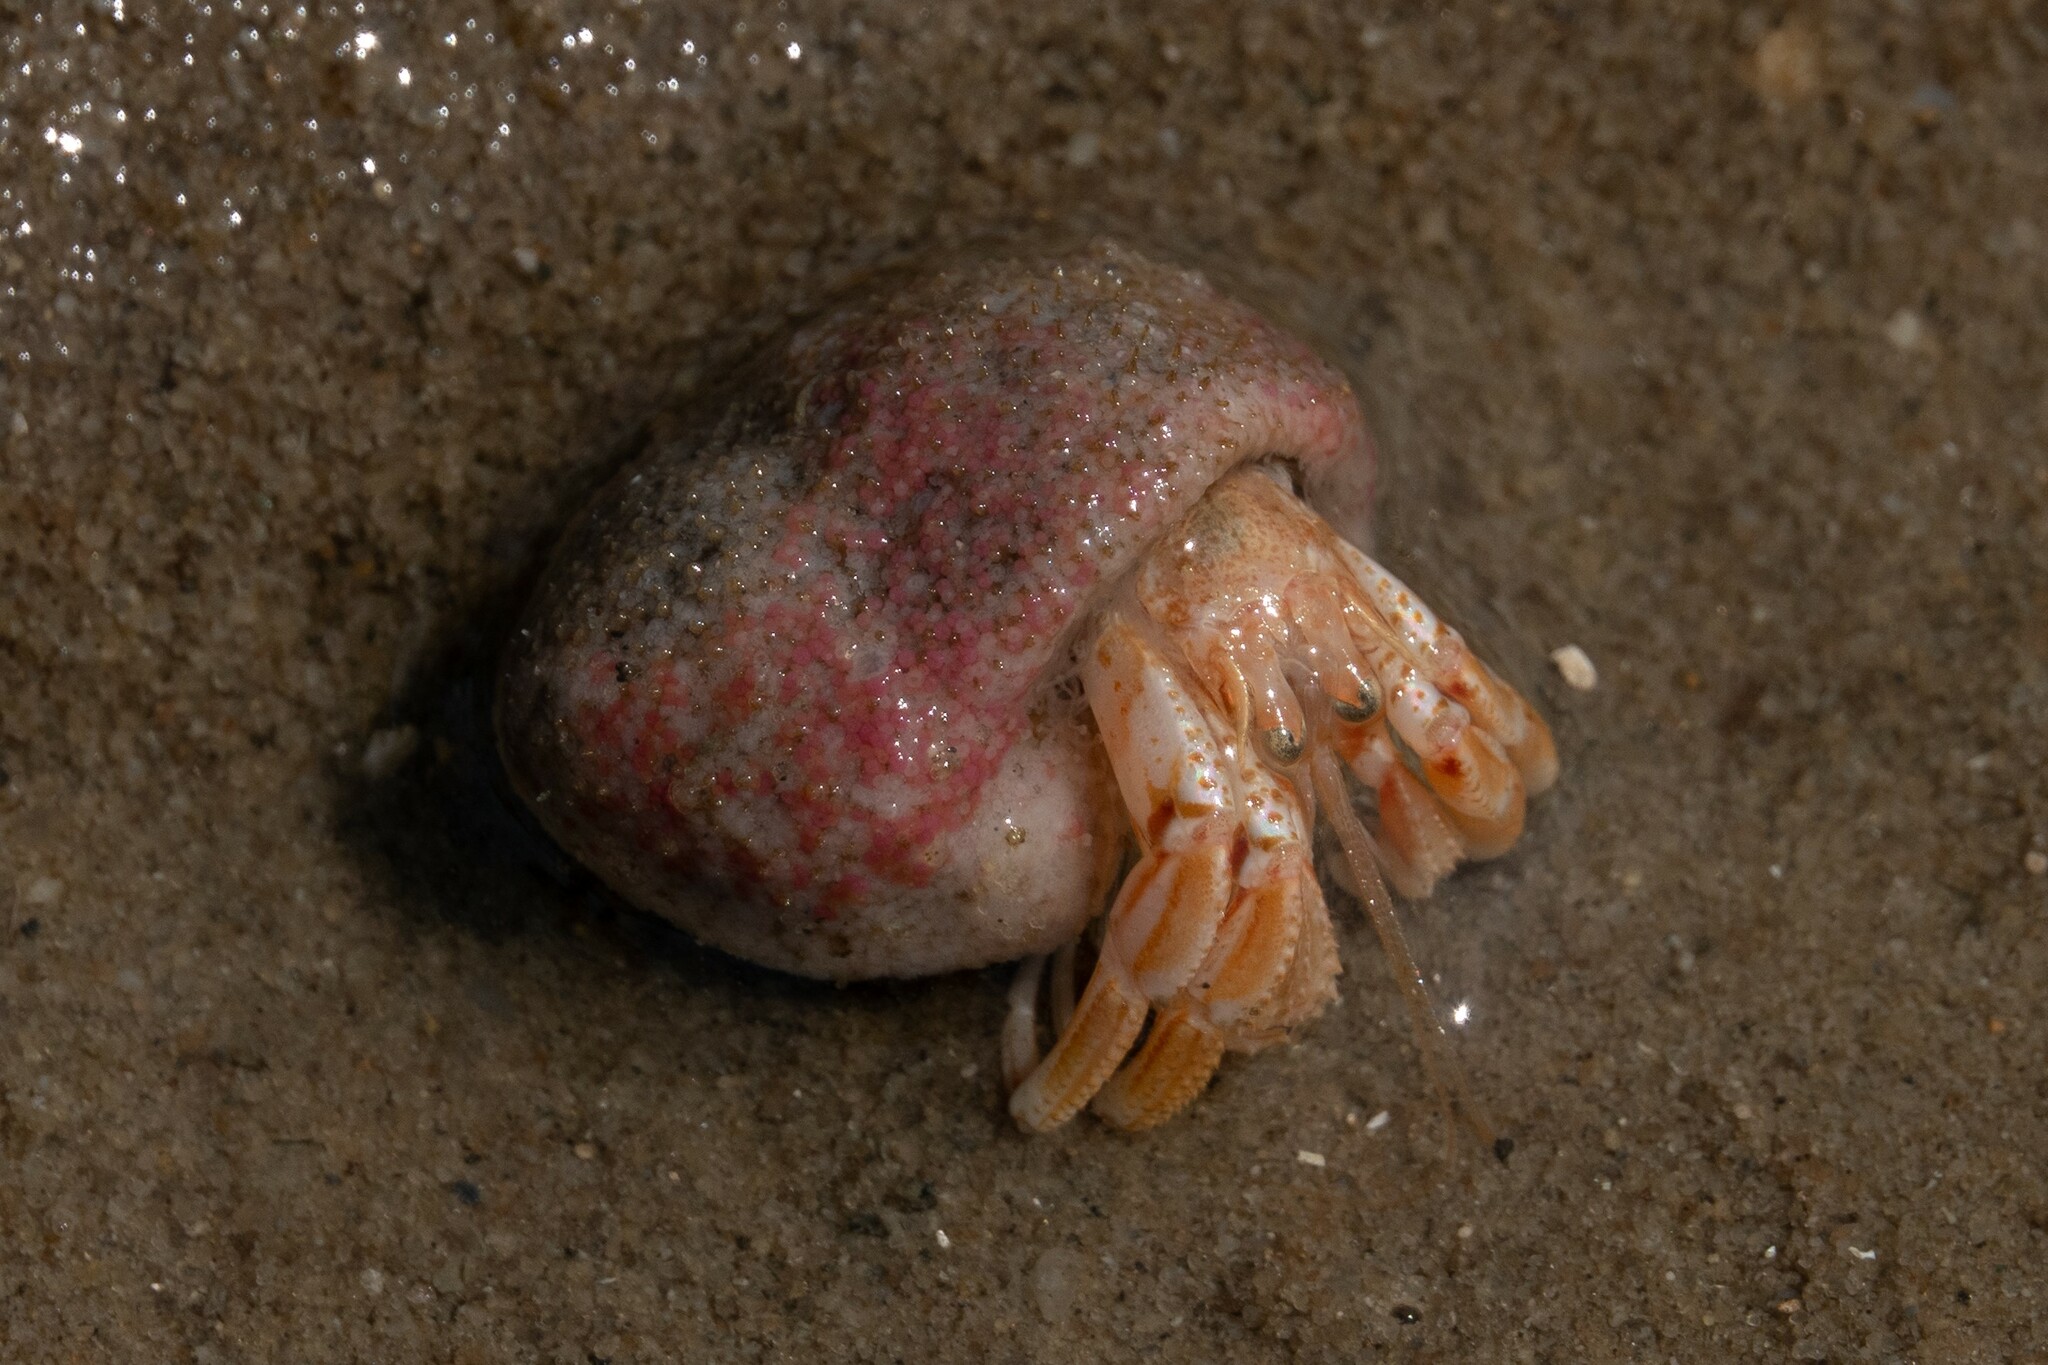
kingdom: Animalia
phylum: Arthropoda
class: Malacostraca
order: Decapoda
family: Paguridae
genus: Pagurus
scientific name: Pagurus bernhardus
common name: Hermit crab
